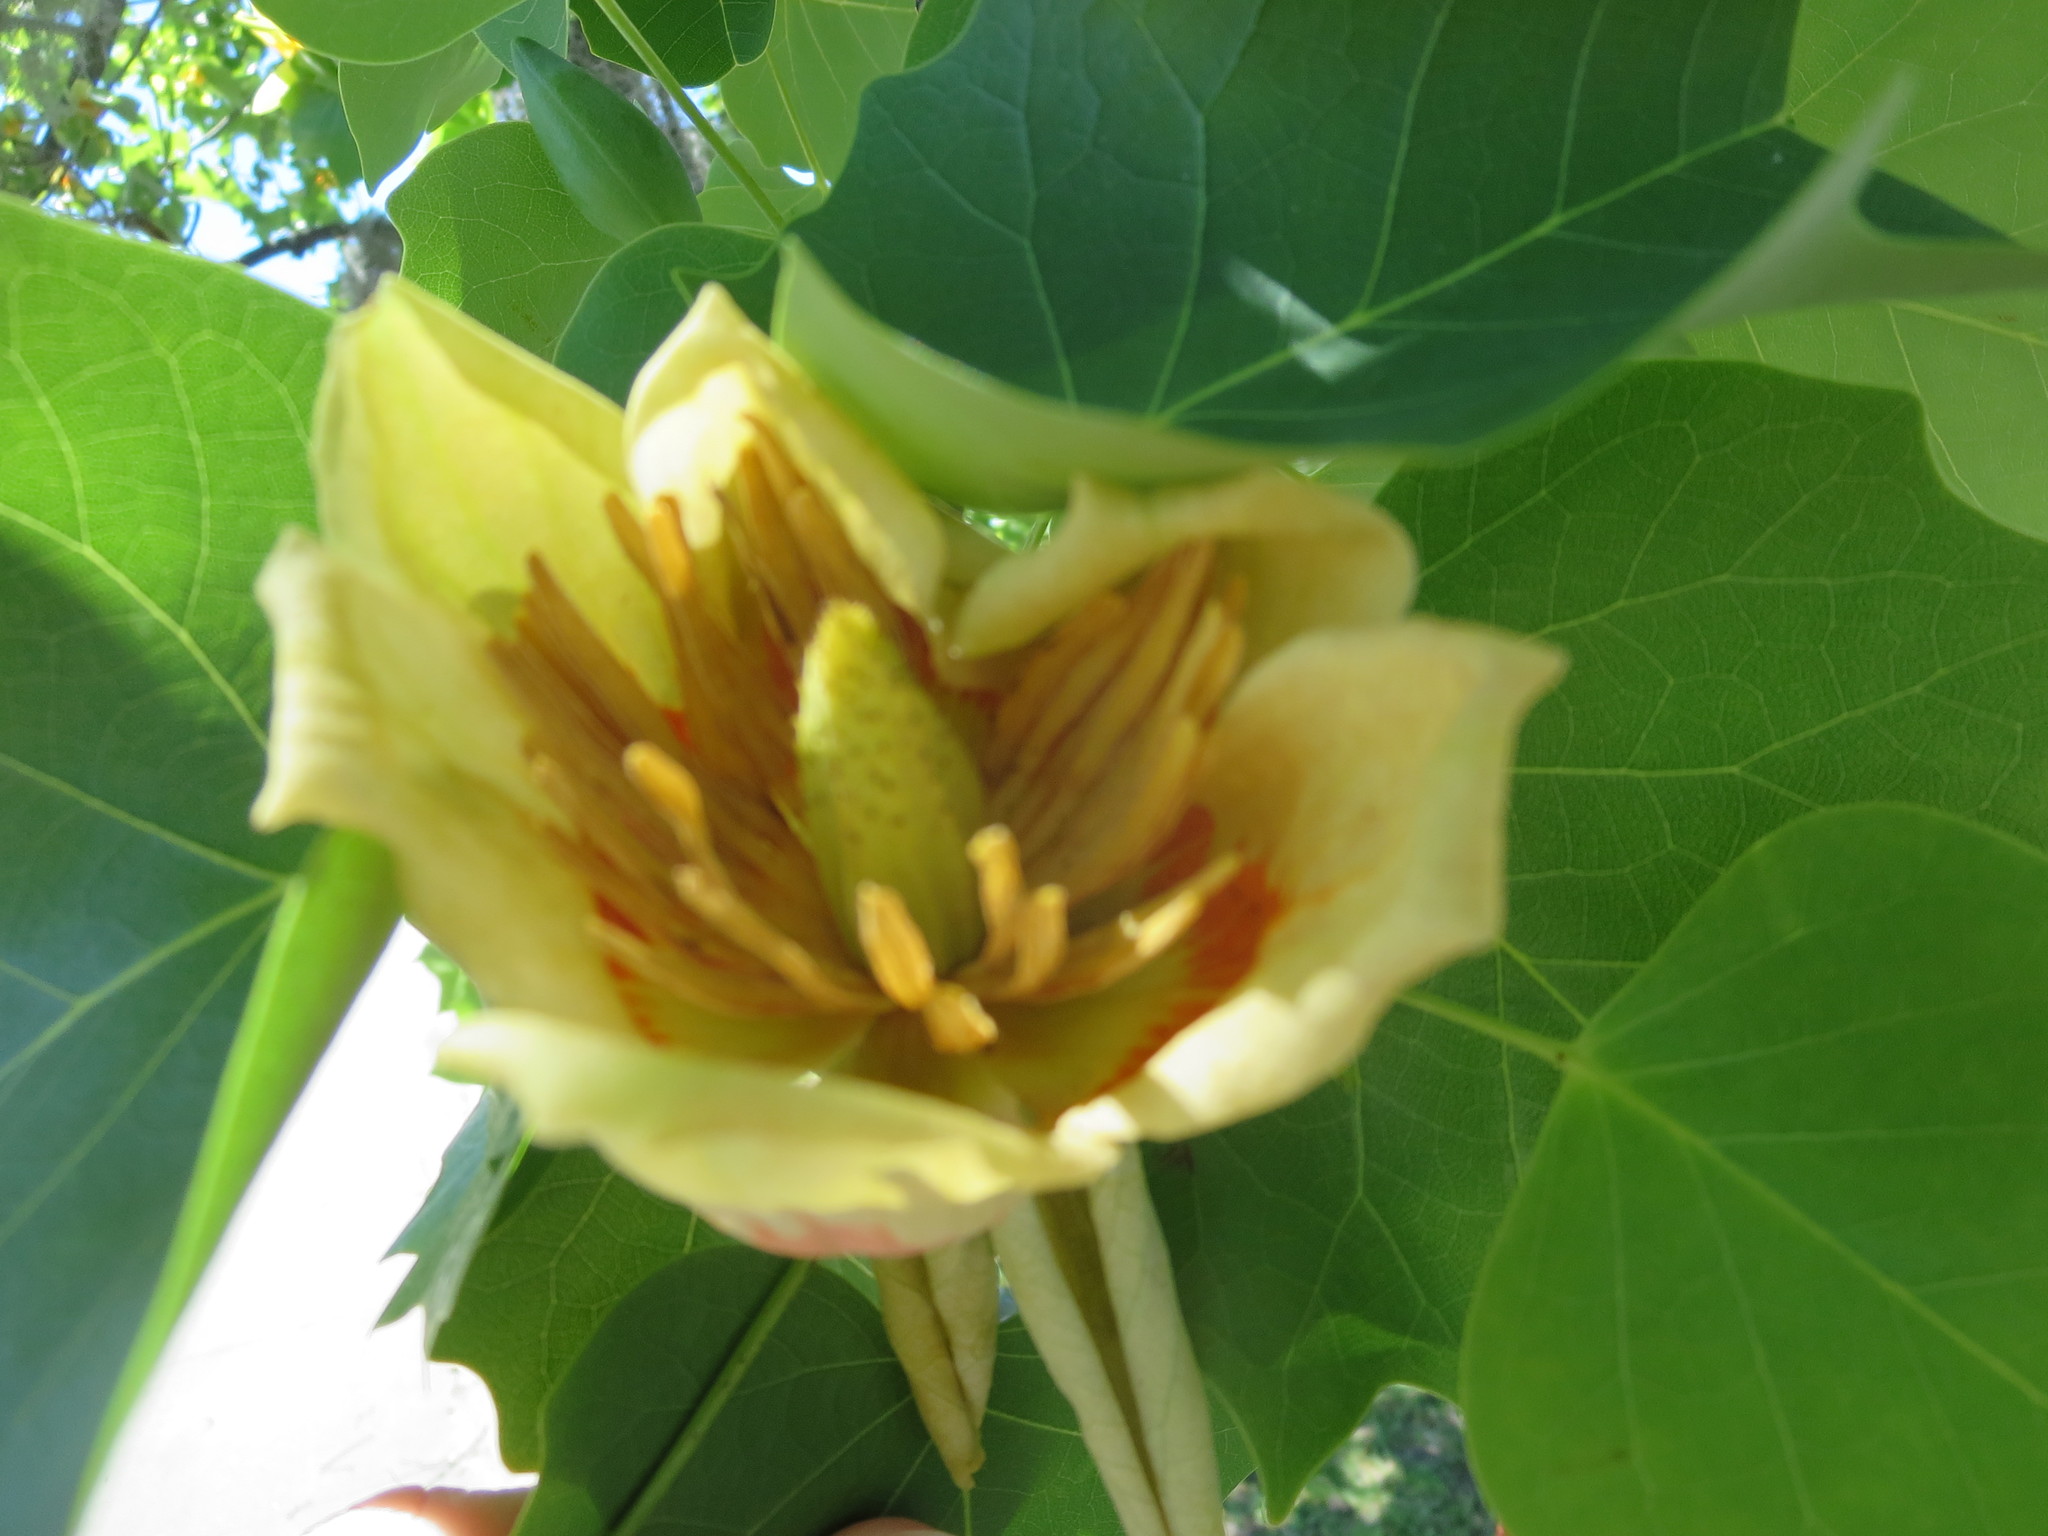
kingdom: Plantae
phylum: Tracheophyta
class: Magnoliopsida
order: Magnoliales
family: Magnoliaceae
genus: Liriodendron
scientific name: Liriodendron tulipifera
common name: Tulip tree
